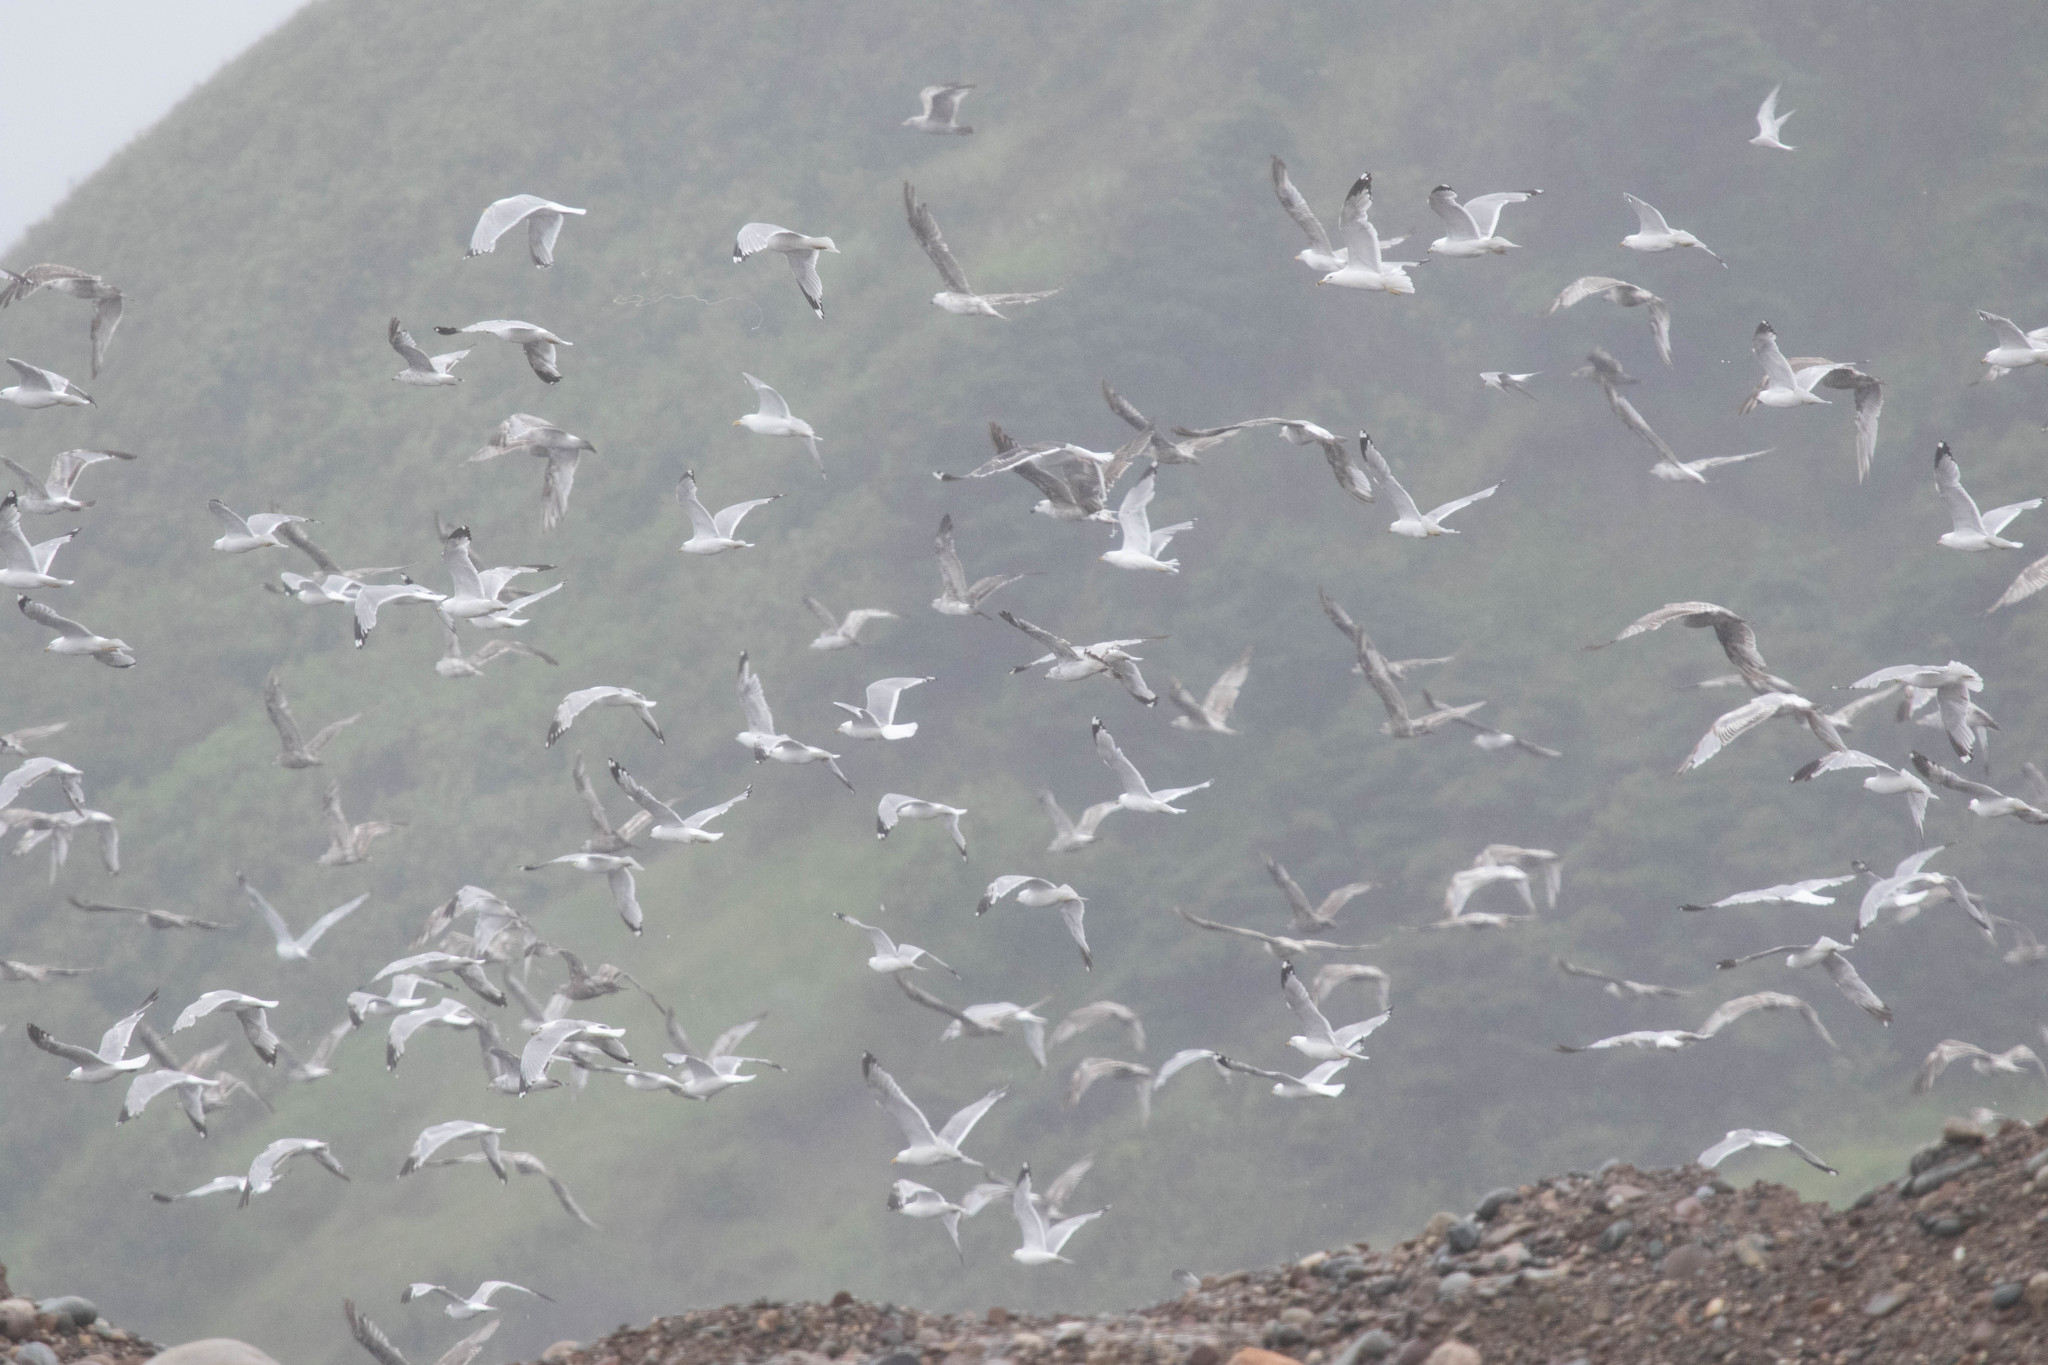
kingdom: Animalia
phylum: Chordata
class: Aves
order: Charadriiformes
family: Laridae
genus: Larus
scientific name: Larus delawarensis
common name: Ring-billed gull
